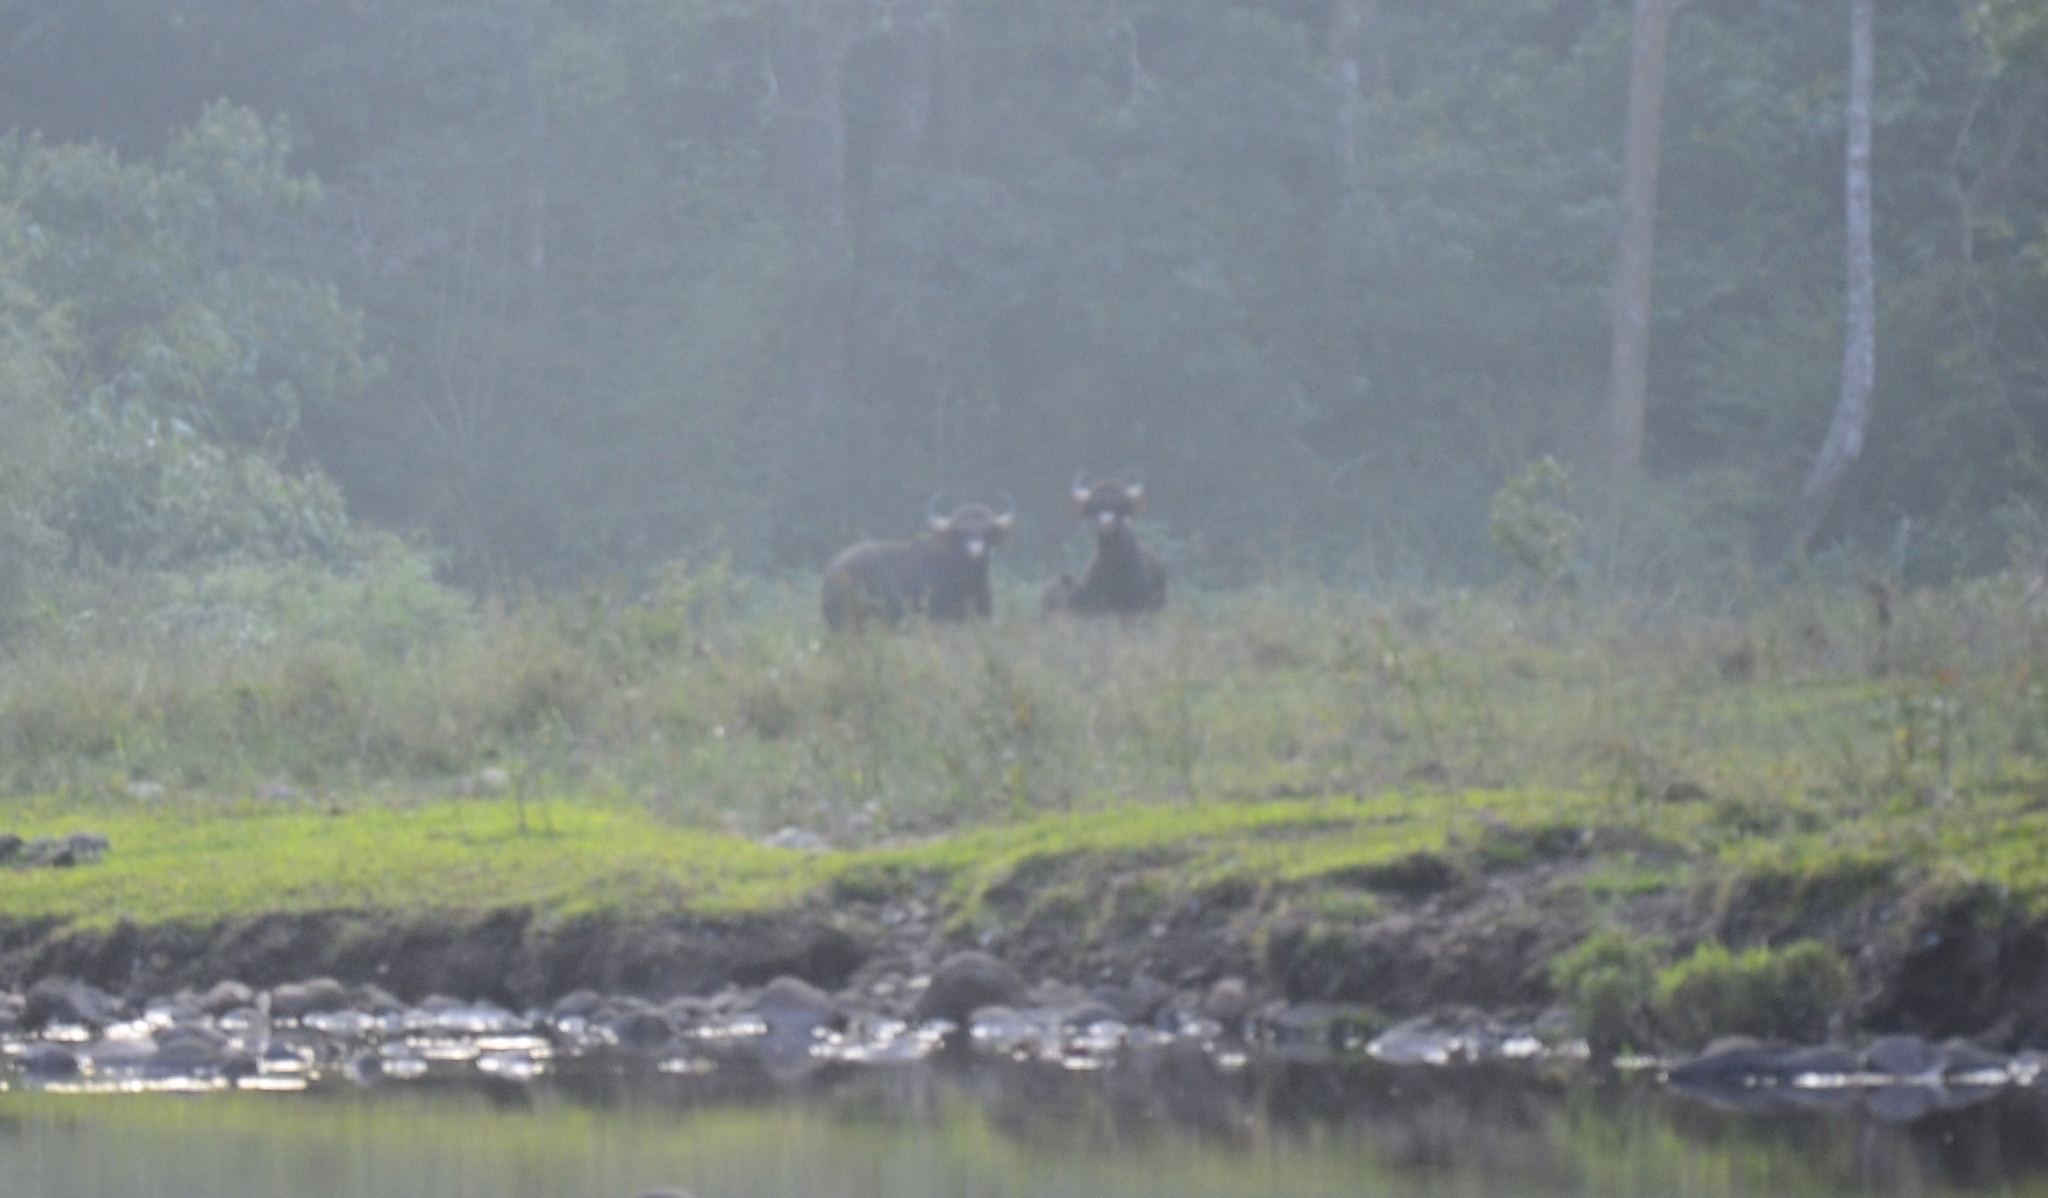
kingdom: Animalia
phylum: Chordata
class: Mammalia
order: Artiodactyla
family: Bovidae
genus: Bos
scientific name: Bos frontalis
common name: Gaur
